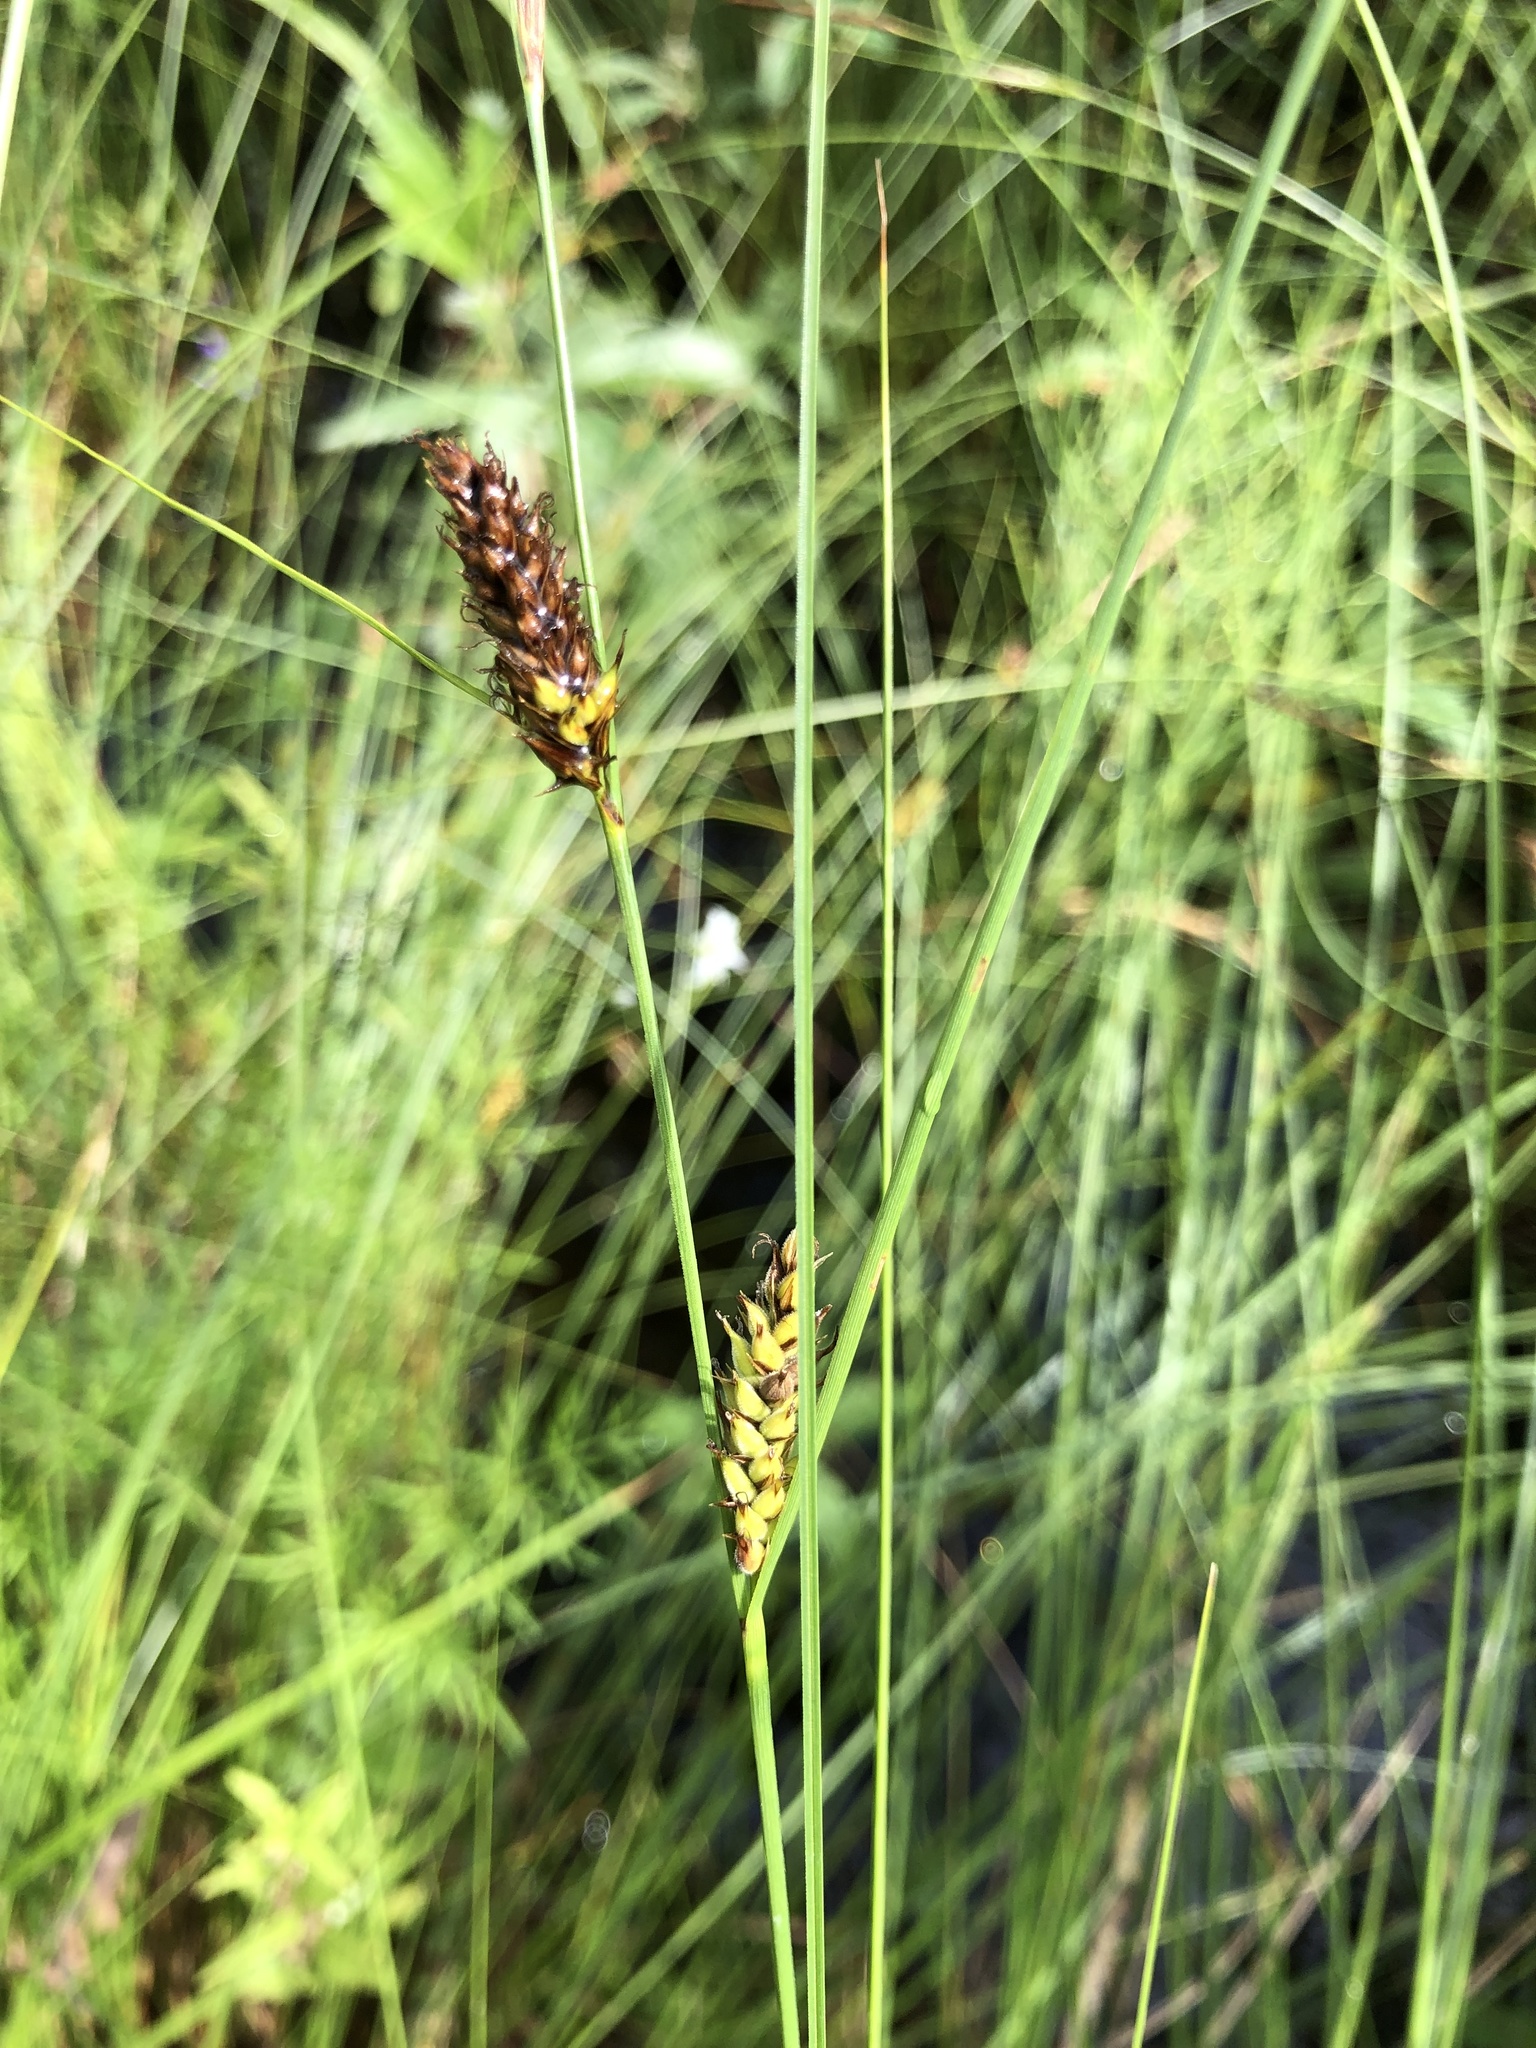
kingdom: Plantae
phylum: Tracheophyta
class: Liliopsida
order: Poales
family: Cyperaceae
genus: Carex
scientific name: Carex lasiocarpa
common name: Slender sedge
